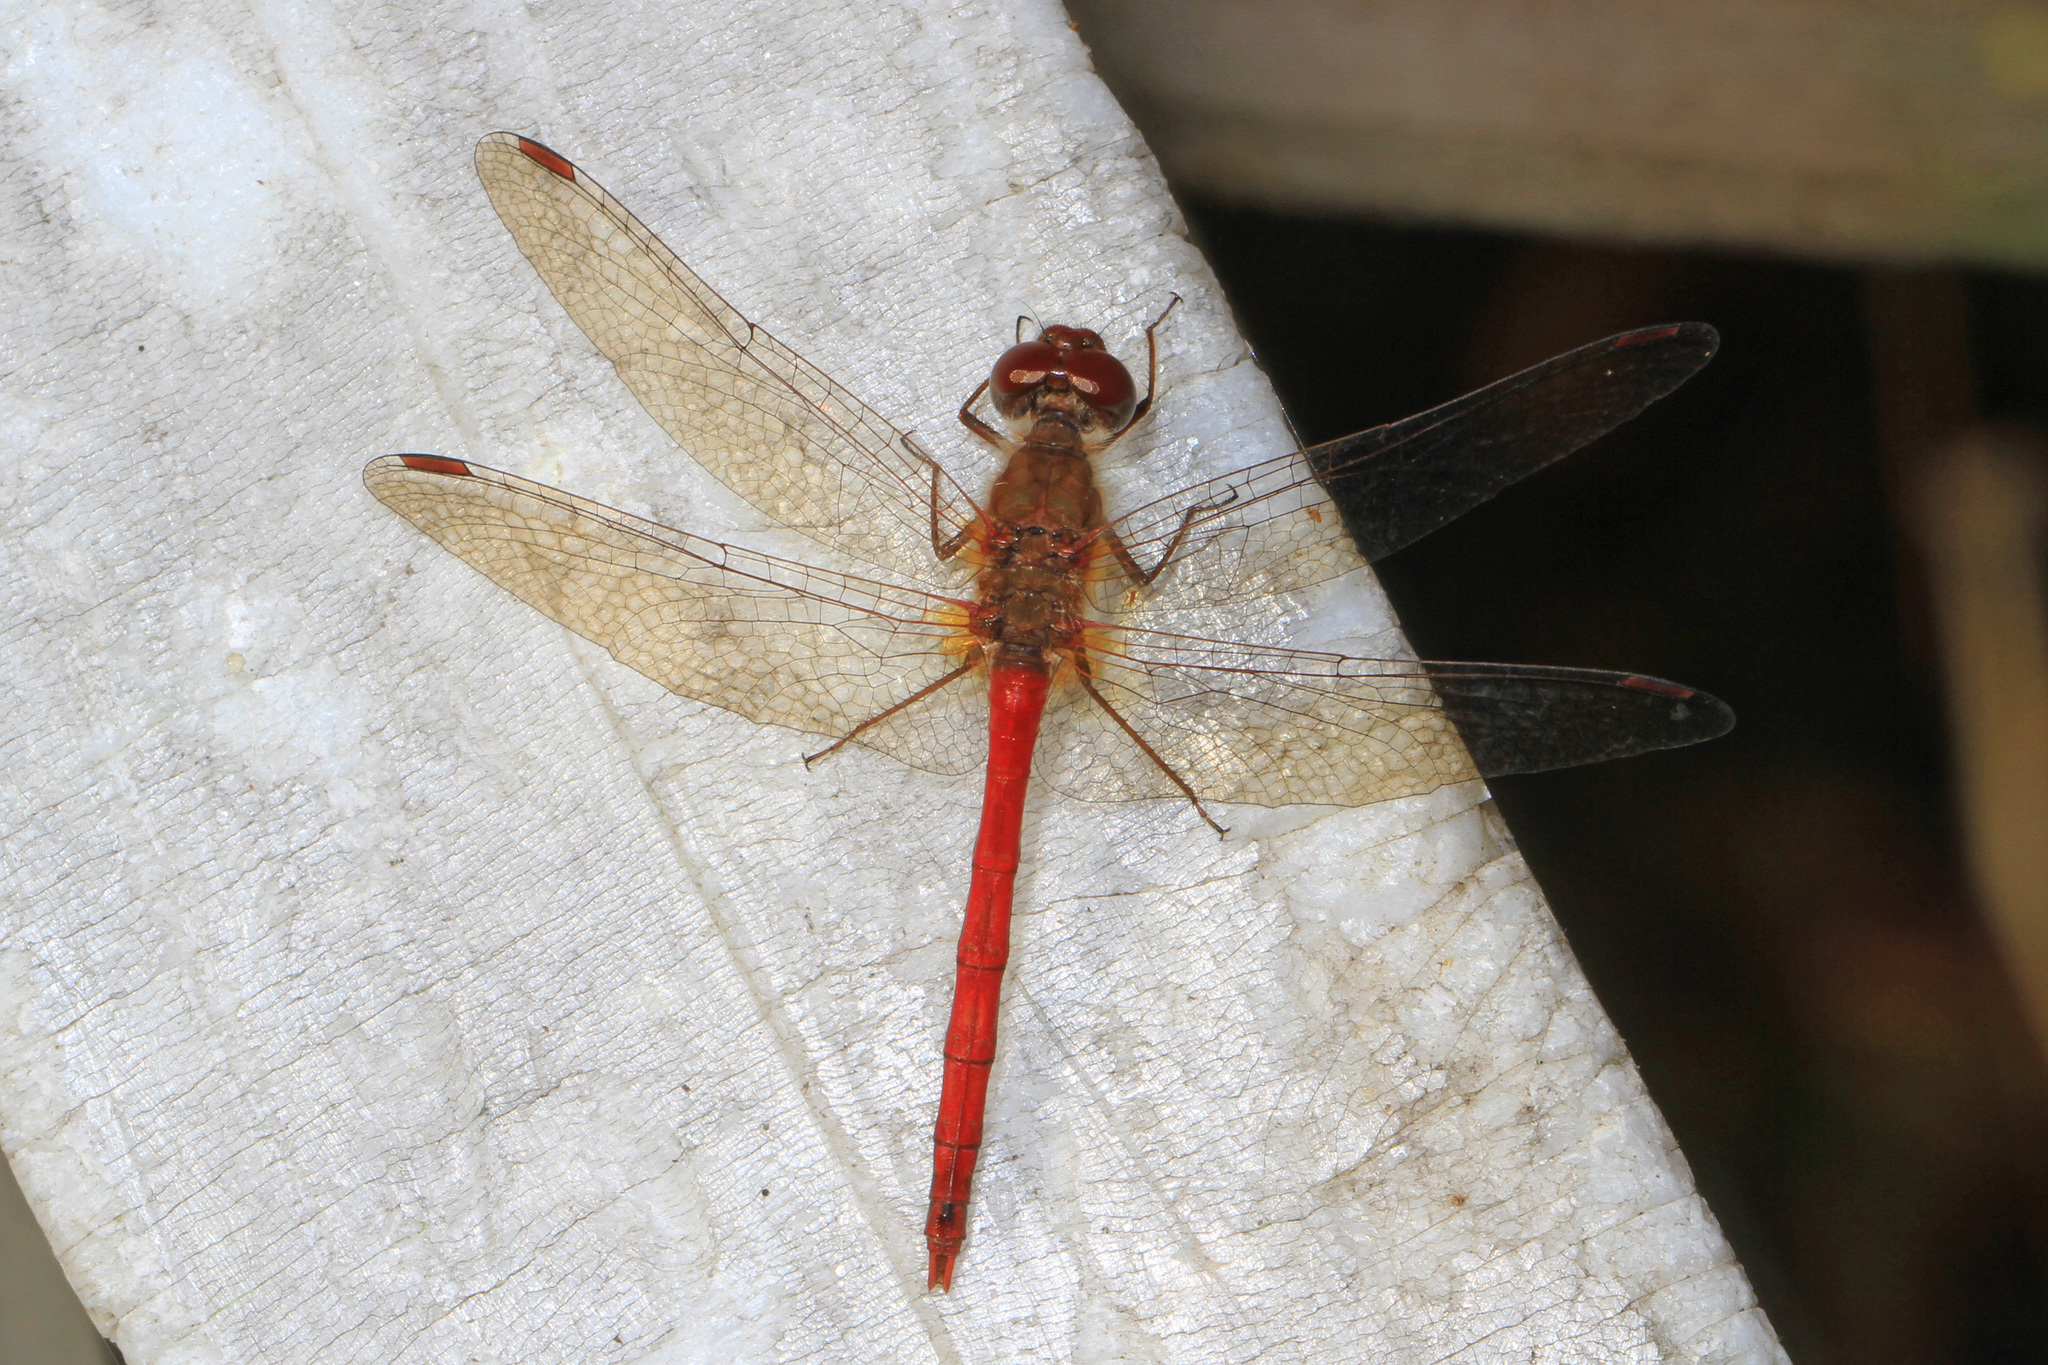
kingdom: Animalia
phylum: Arthropoda
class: Insecta
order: Odonata
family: Libellulidae
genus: Sympetrum
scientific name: Sympetrum vicinum
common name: Autumn meadowhawk
